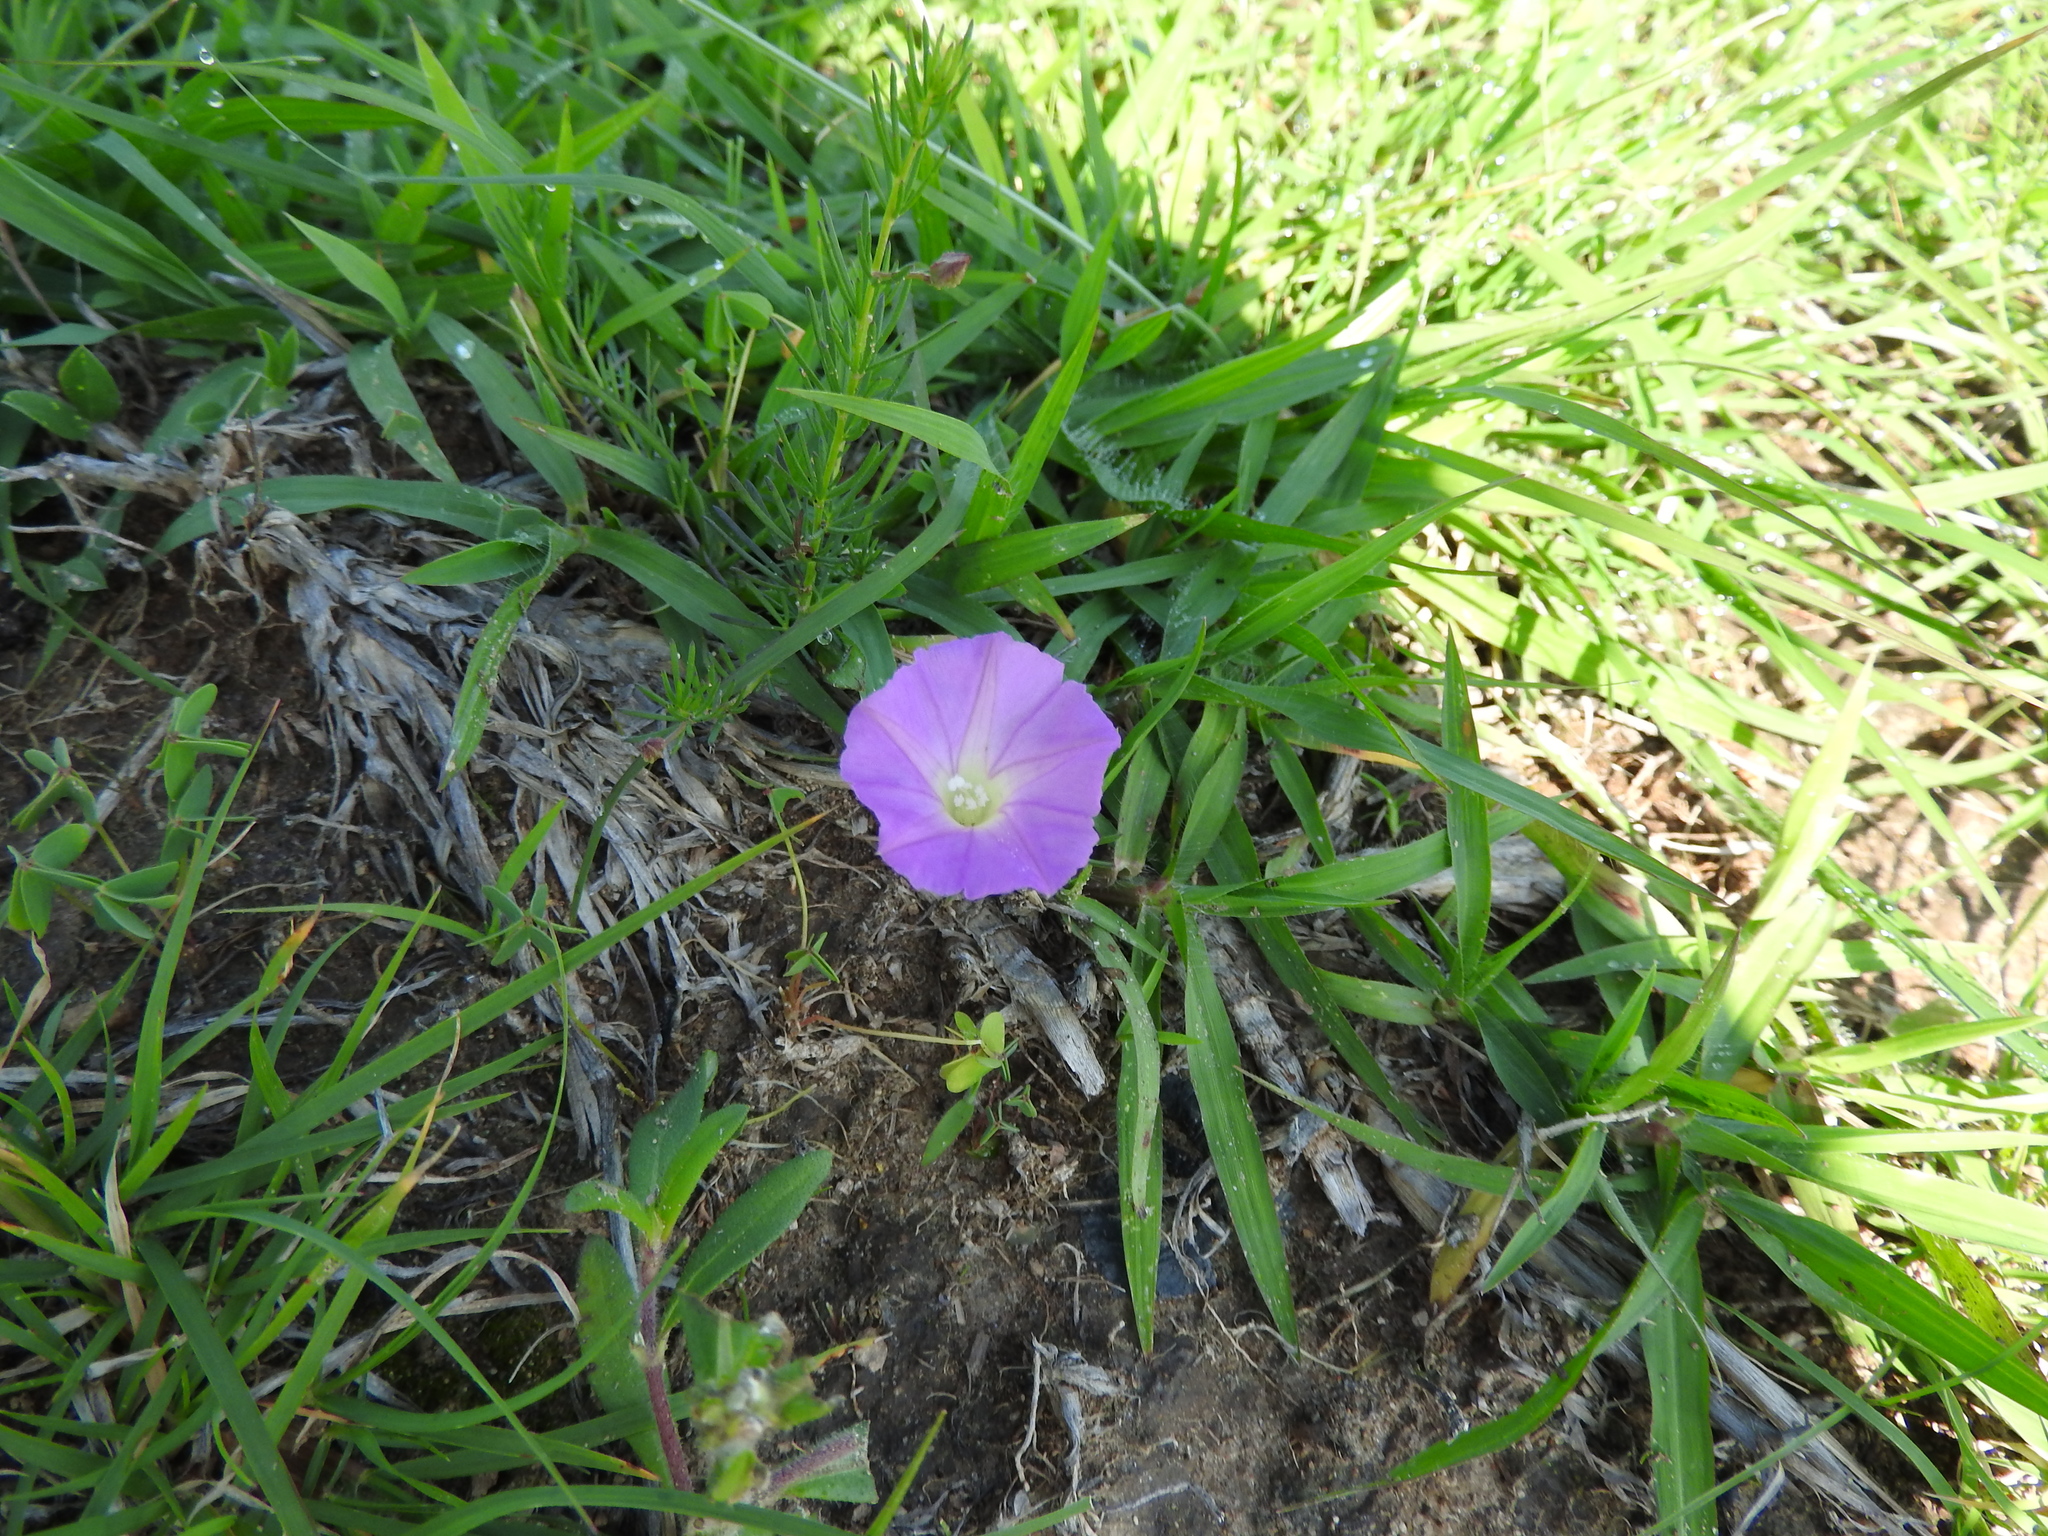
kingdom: Plantae
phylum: Tracheophyta
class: Magnoliopsida
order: Solanales
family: Convolvulaceae
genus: Ipomoea
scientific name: Ipomoea capillacea
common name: Purple morning-glory
